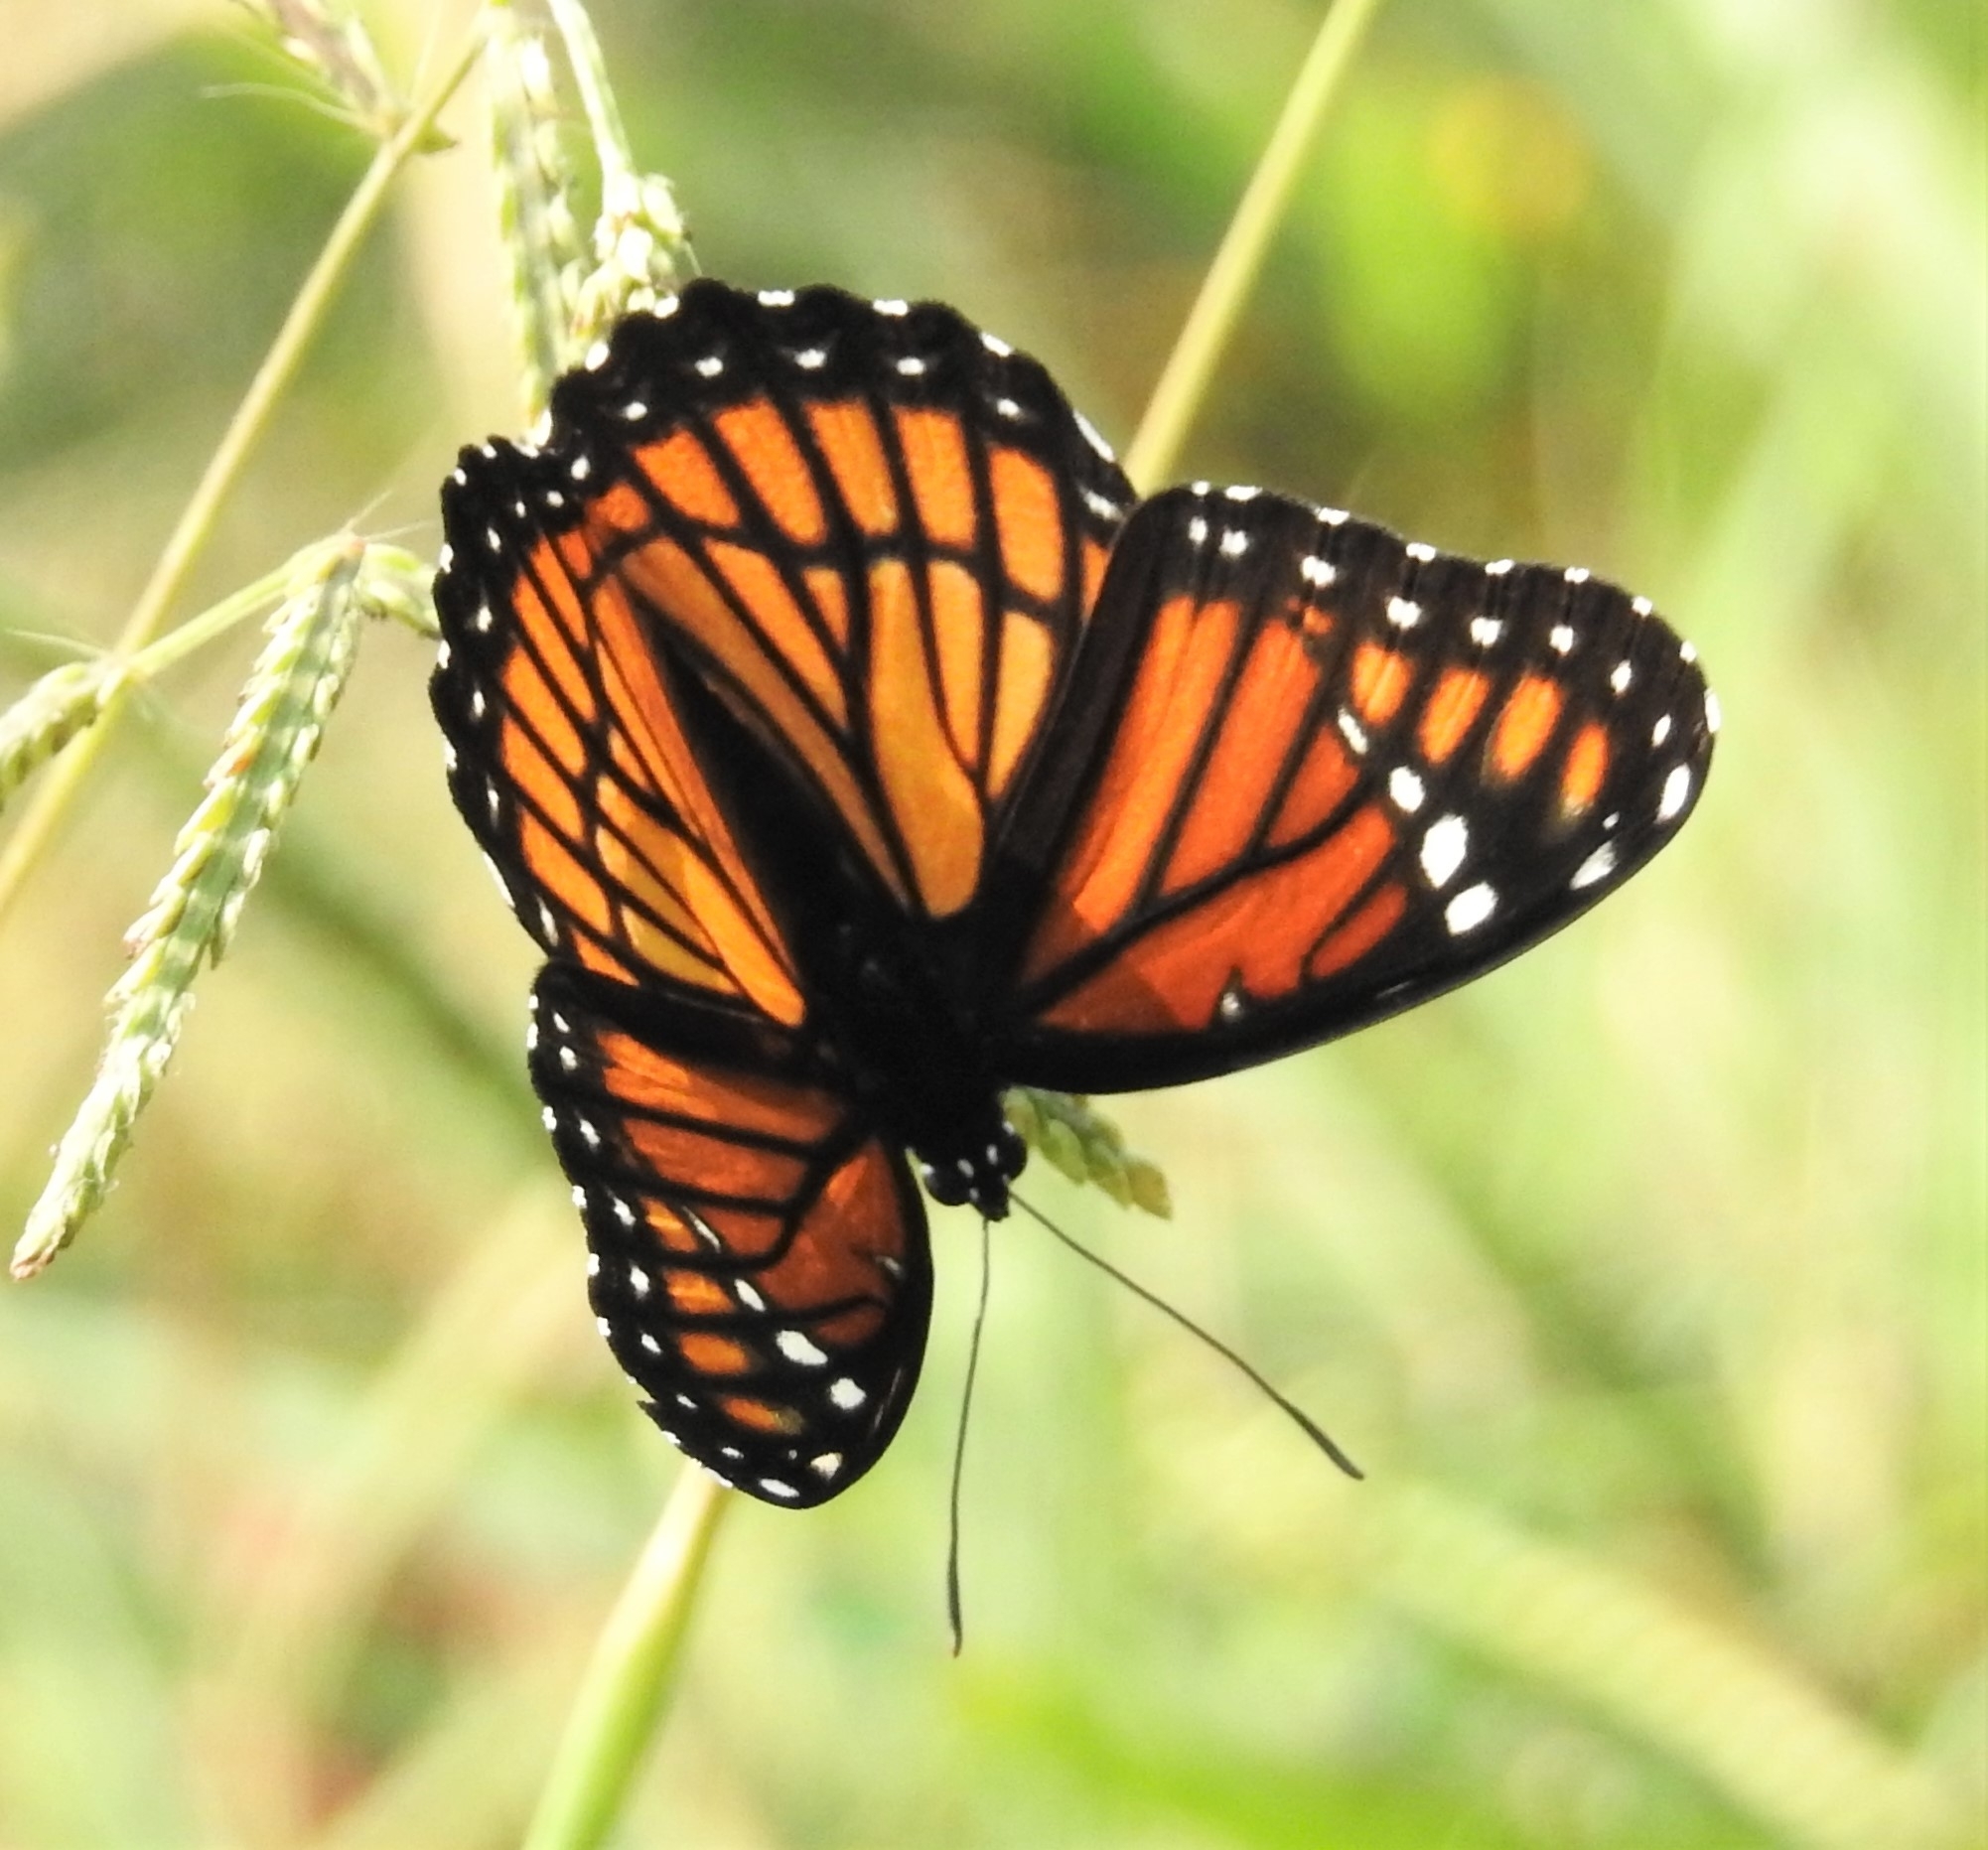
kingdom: Animalia
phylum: Arthropoda
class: Insecta
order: Lepidoptera
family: Nymphalidae
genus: Limenitis
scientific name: Limenitis archippus
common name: Viceroy
